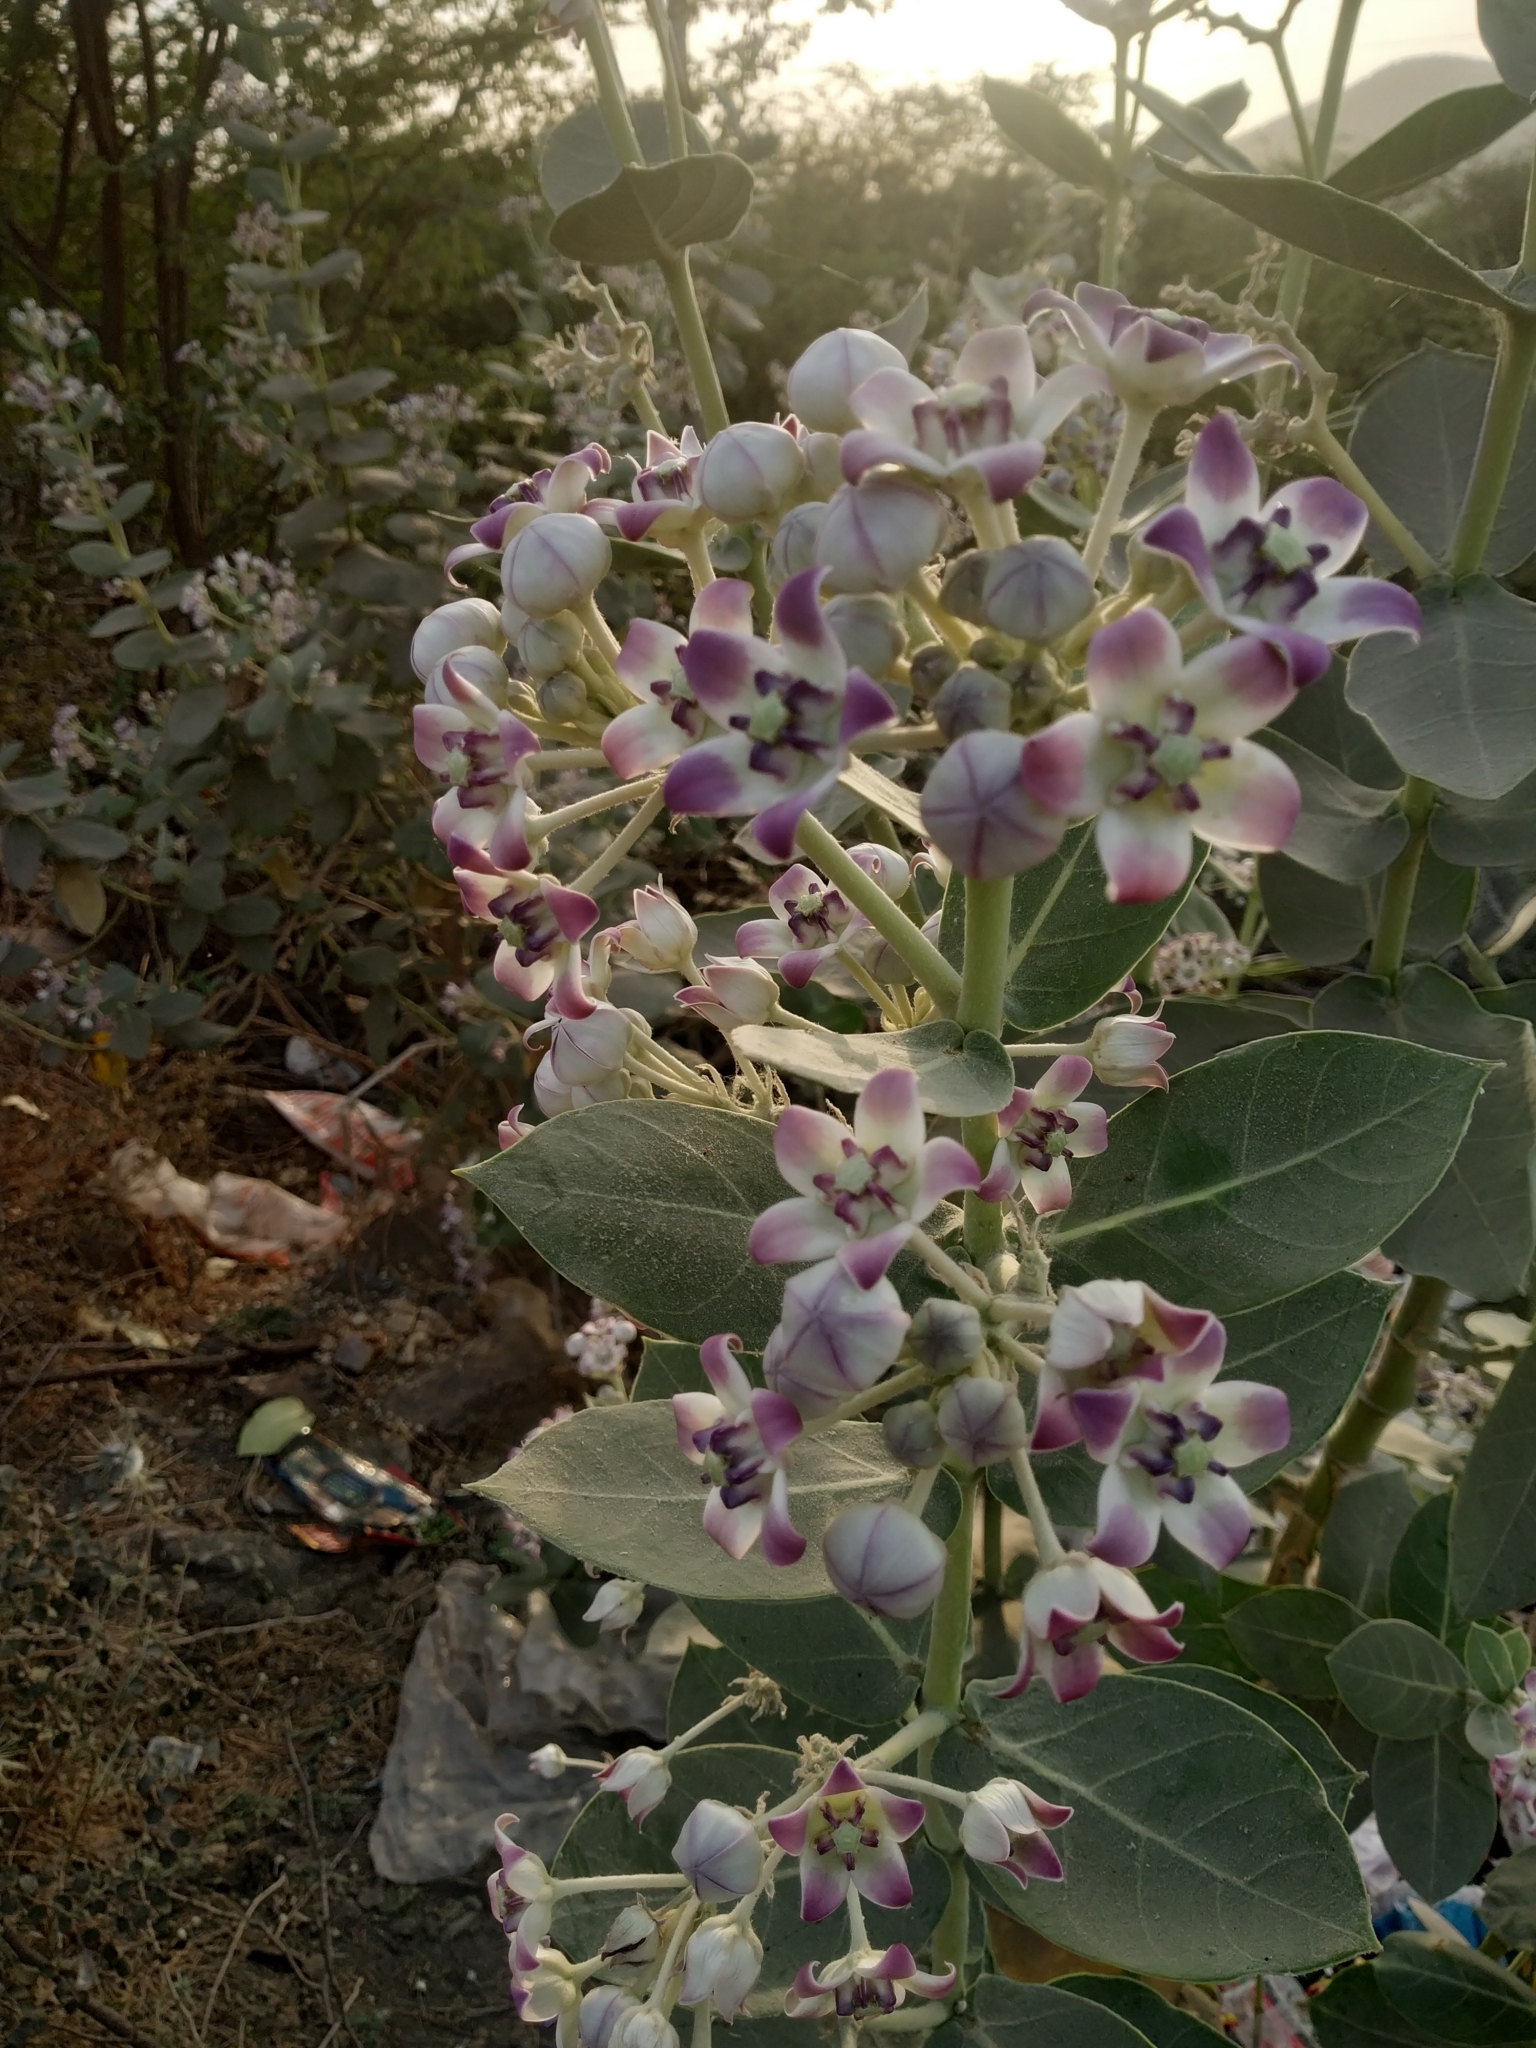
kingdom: Plantae
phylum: Tracheophyta
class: Magnoliopsida
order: Gentianales
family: Apocynaceae
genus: Calotropis
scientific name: Calotropis procera
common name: Roostertree
